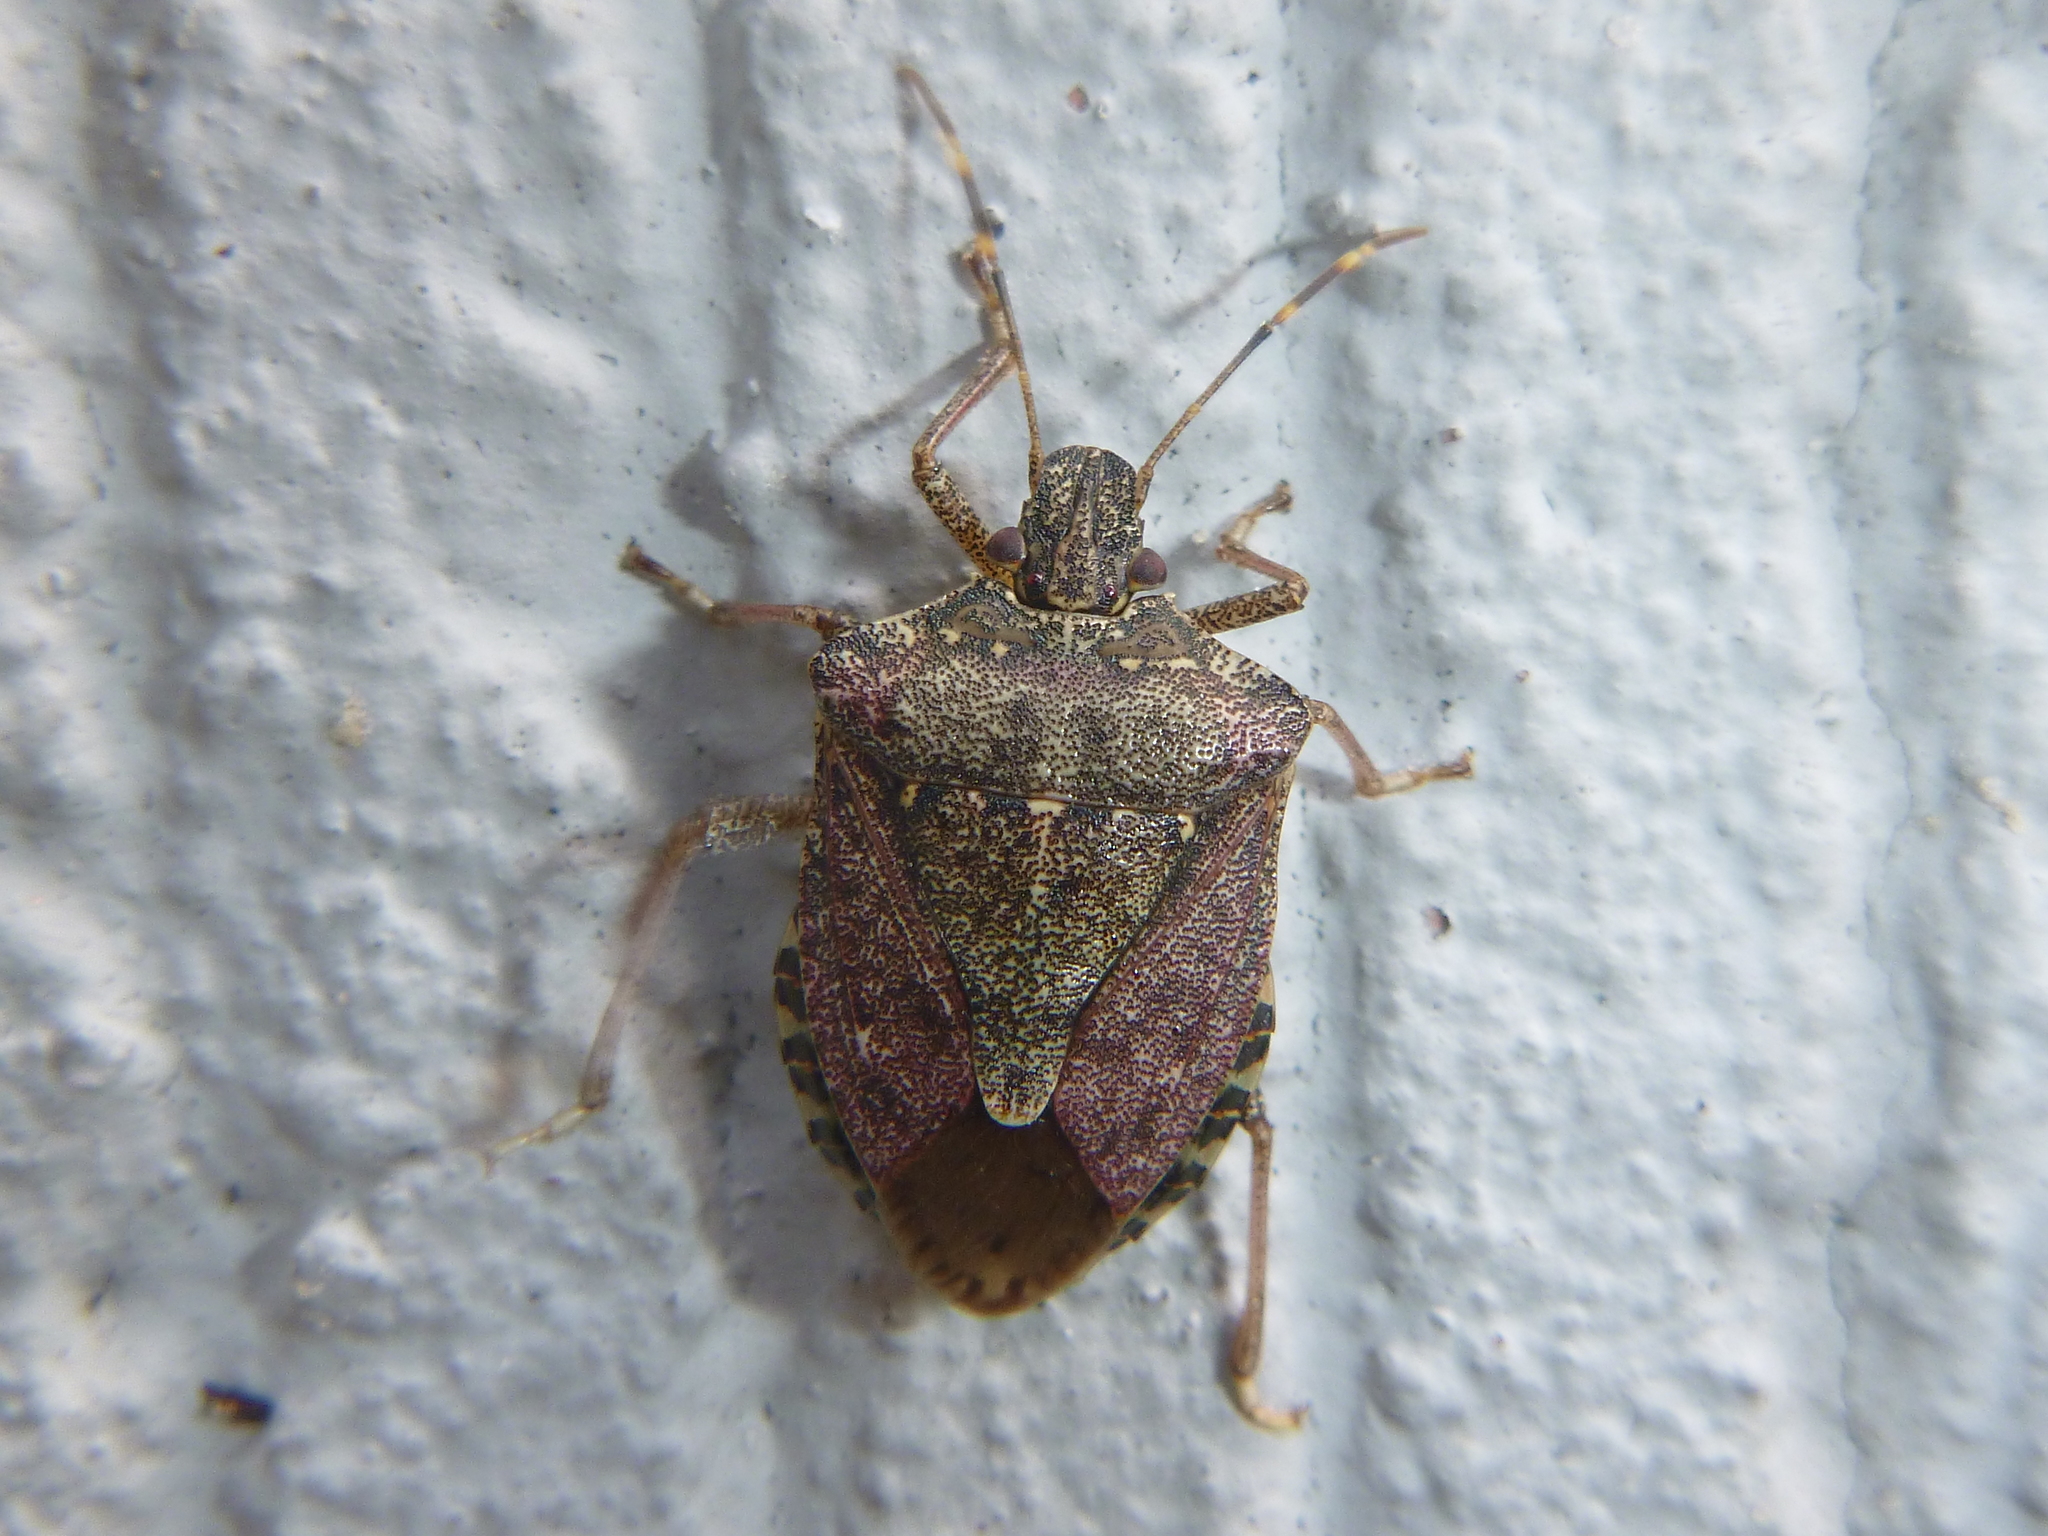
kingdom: Animalia
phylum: Arthropoda
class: Insecta
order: Hemiptera
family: Pentatomidae
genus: Halyomorpha
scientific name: Halyomorpha halys
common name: Brown marmorated stink bug
